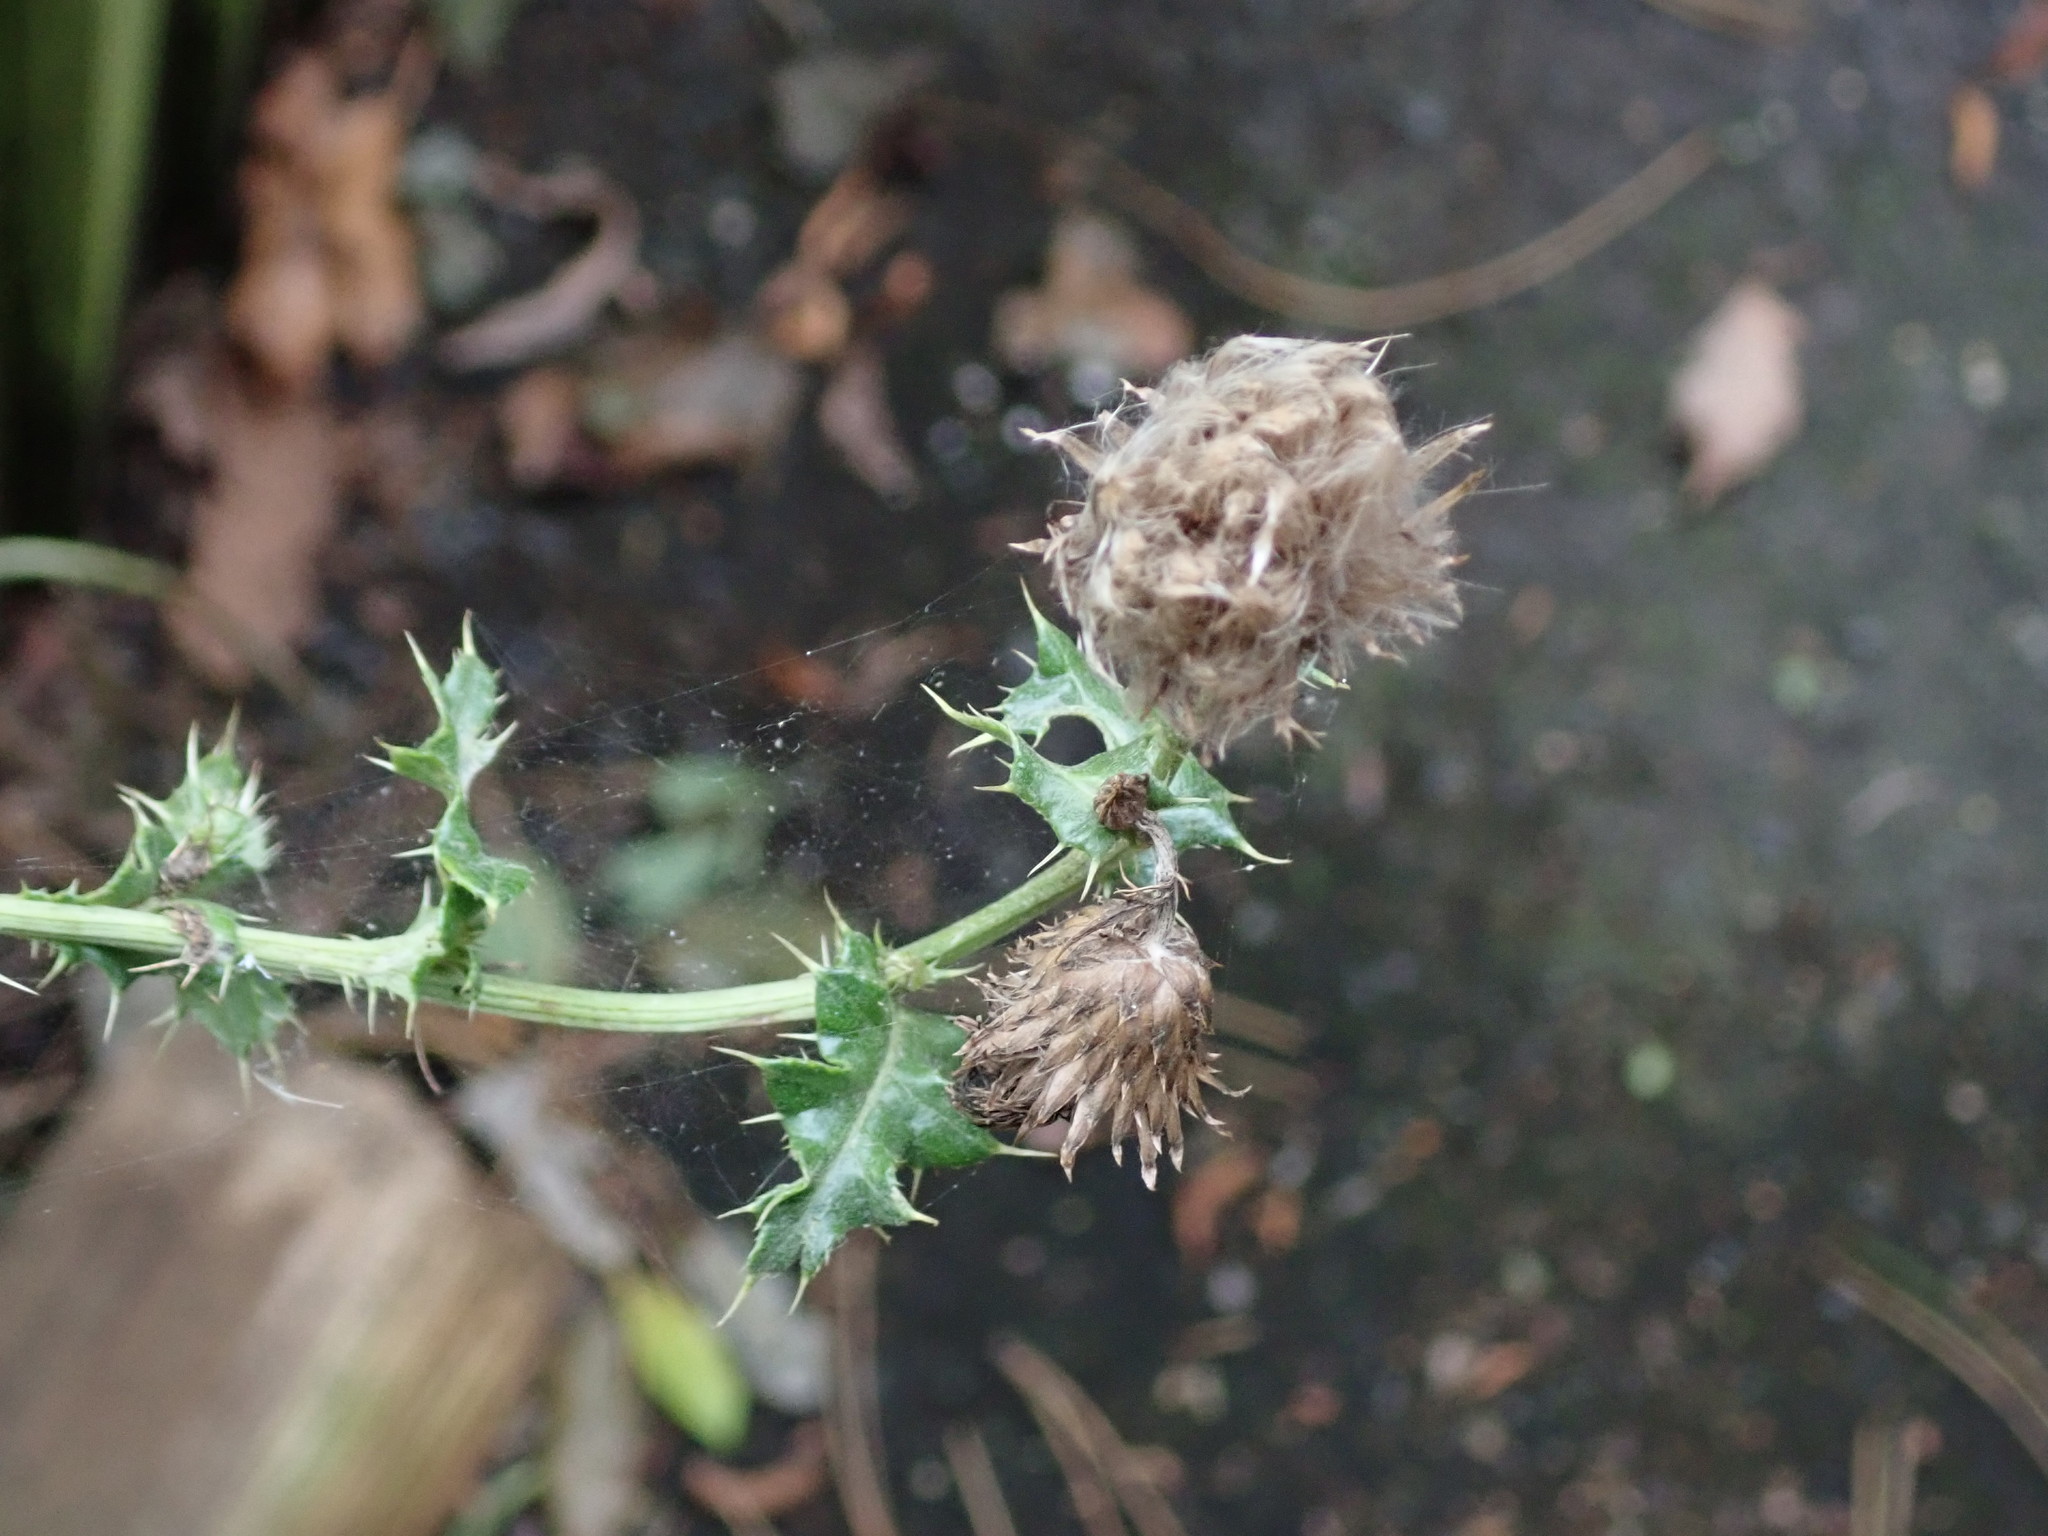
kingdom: Plantae
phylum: Tracheophyta
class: Magnoliopsida
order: Asterales
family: Asteraceae
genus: Cirsium
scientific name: Cirsium arvense
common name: Creeping thistle
